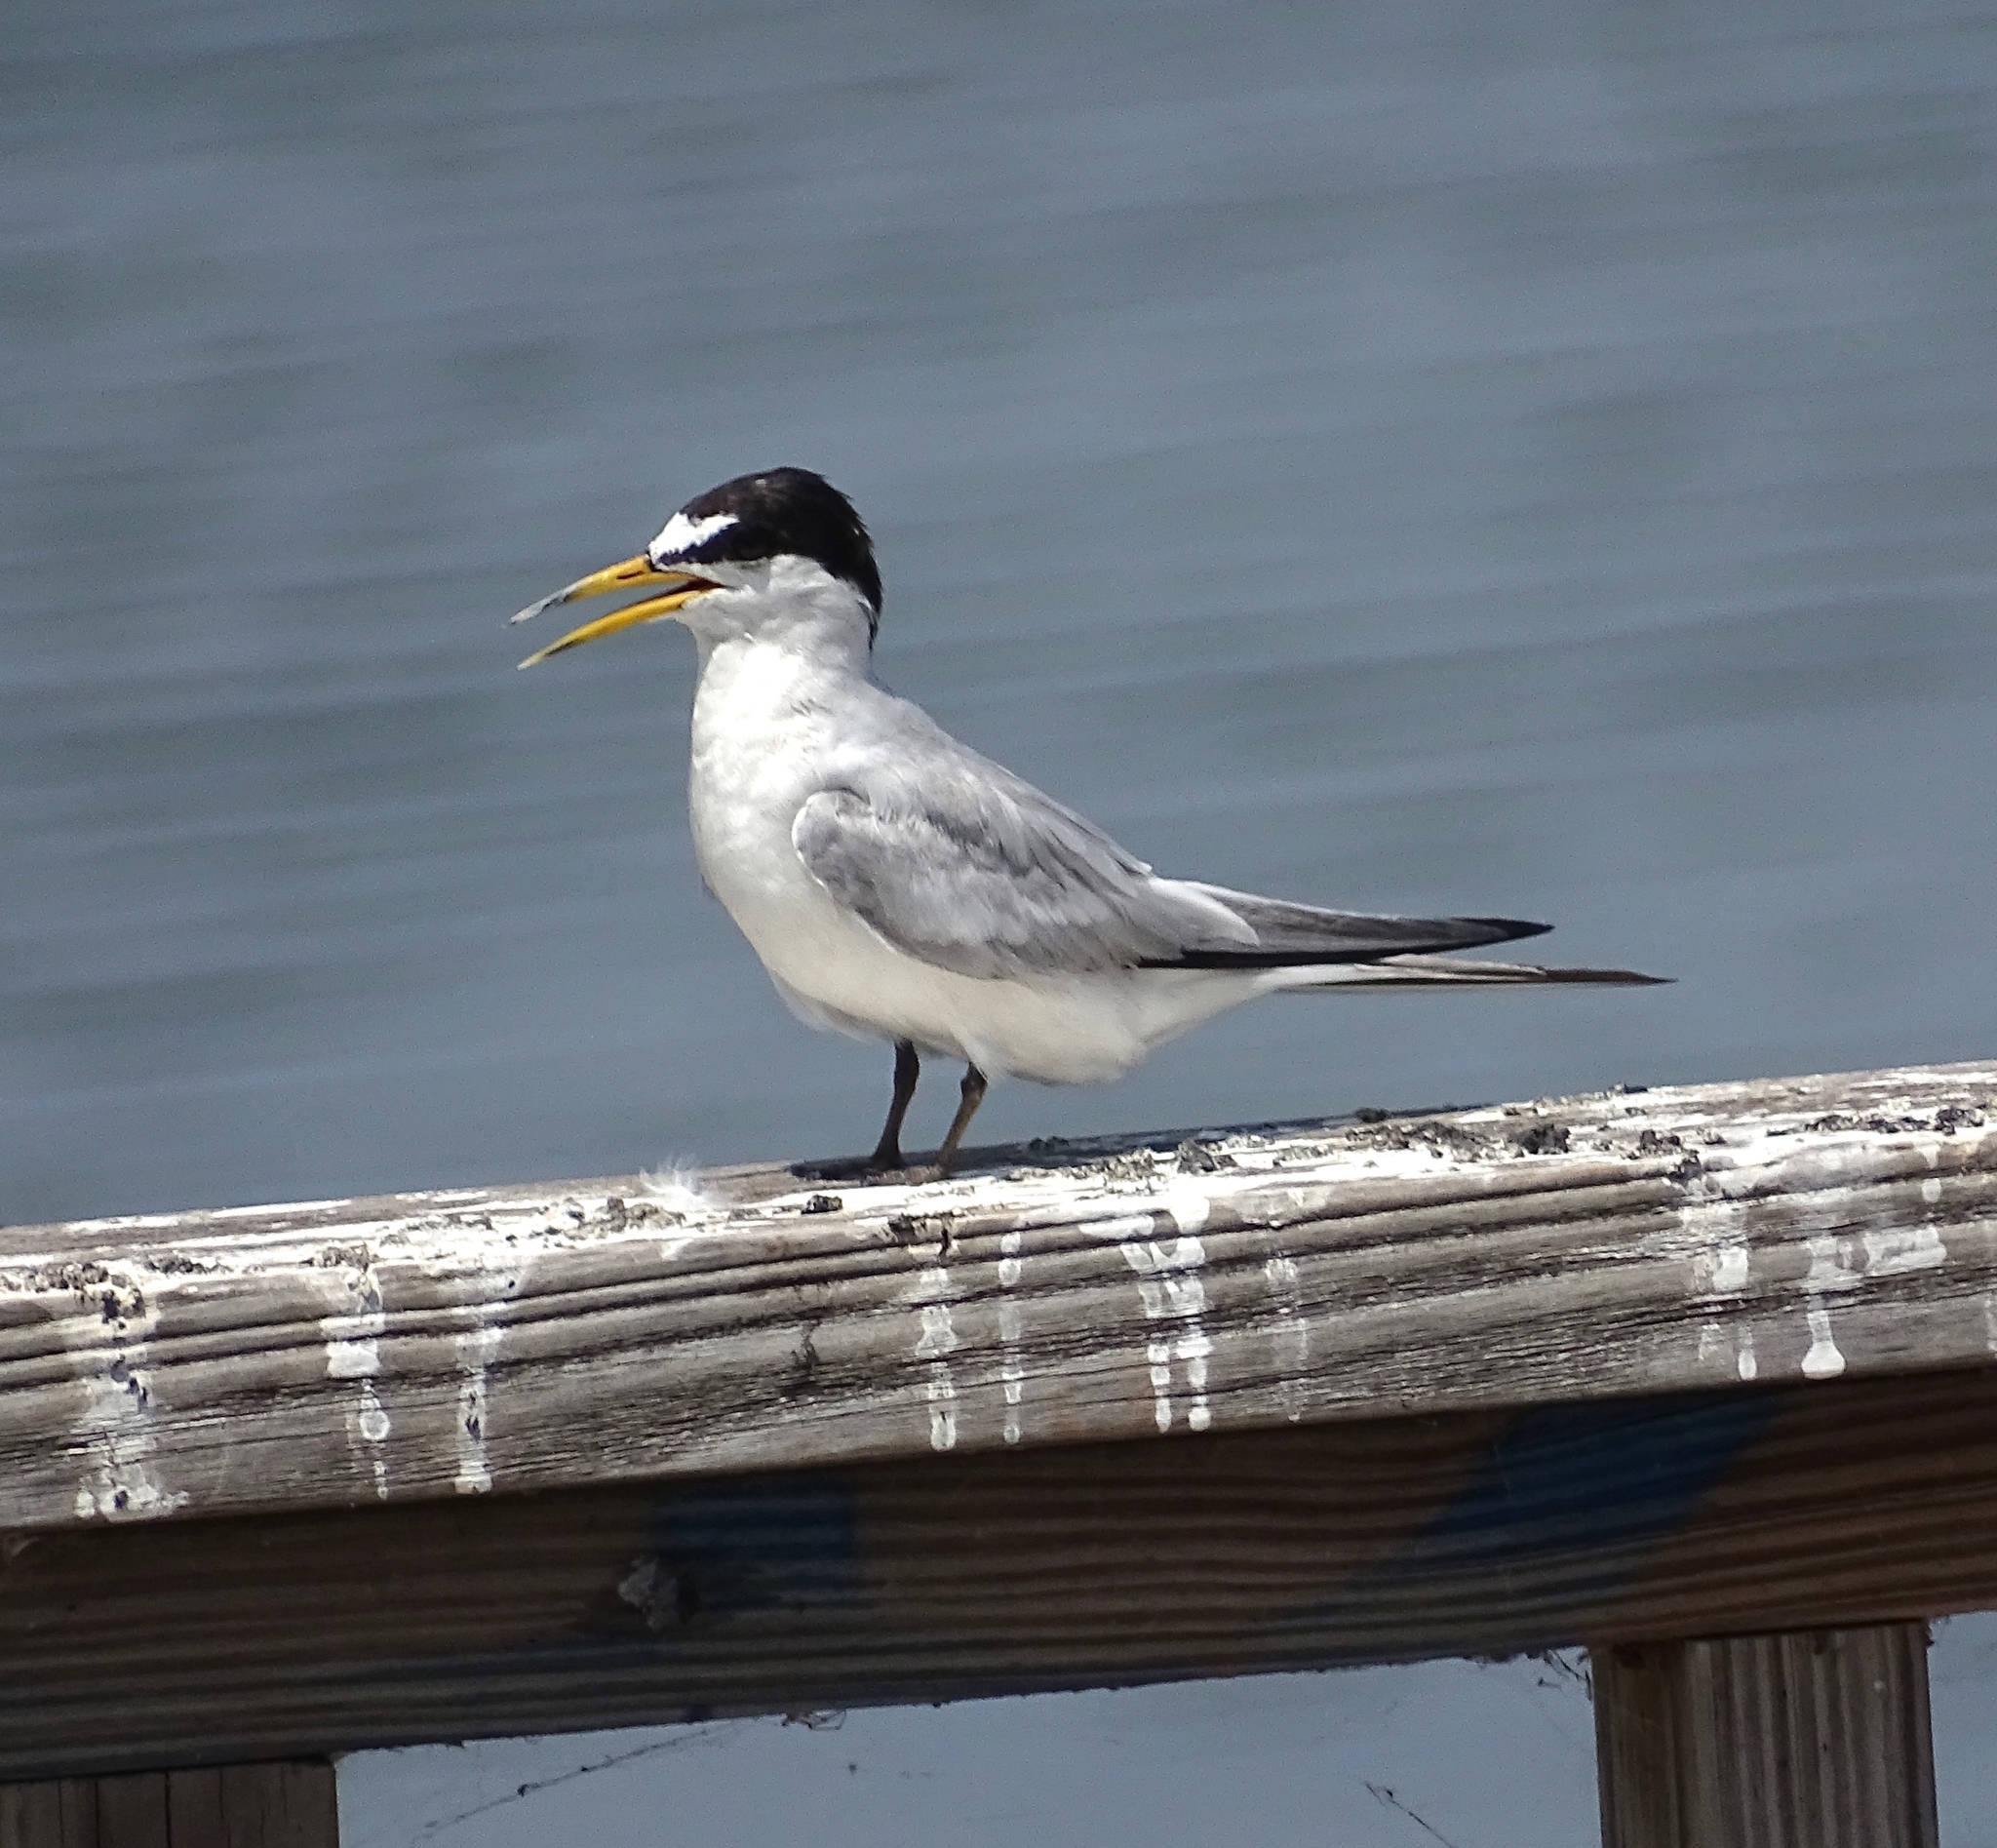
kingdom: Animalia
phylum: Chordata
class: Aves
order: Charadriiformes
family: Laridae
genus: Sternula
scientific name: Sternula antillarum
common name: Least tern
